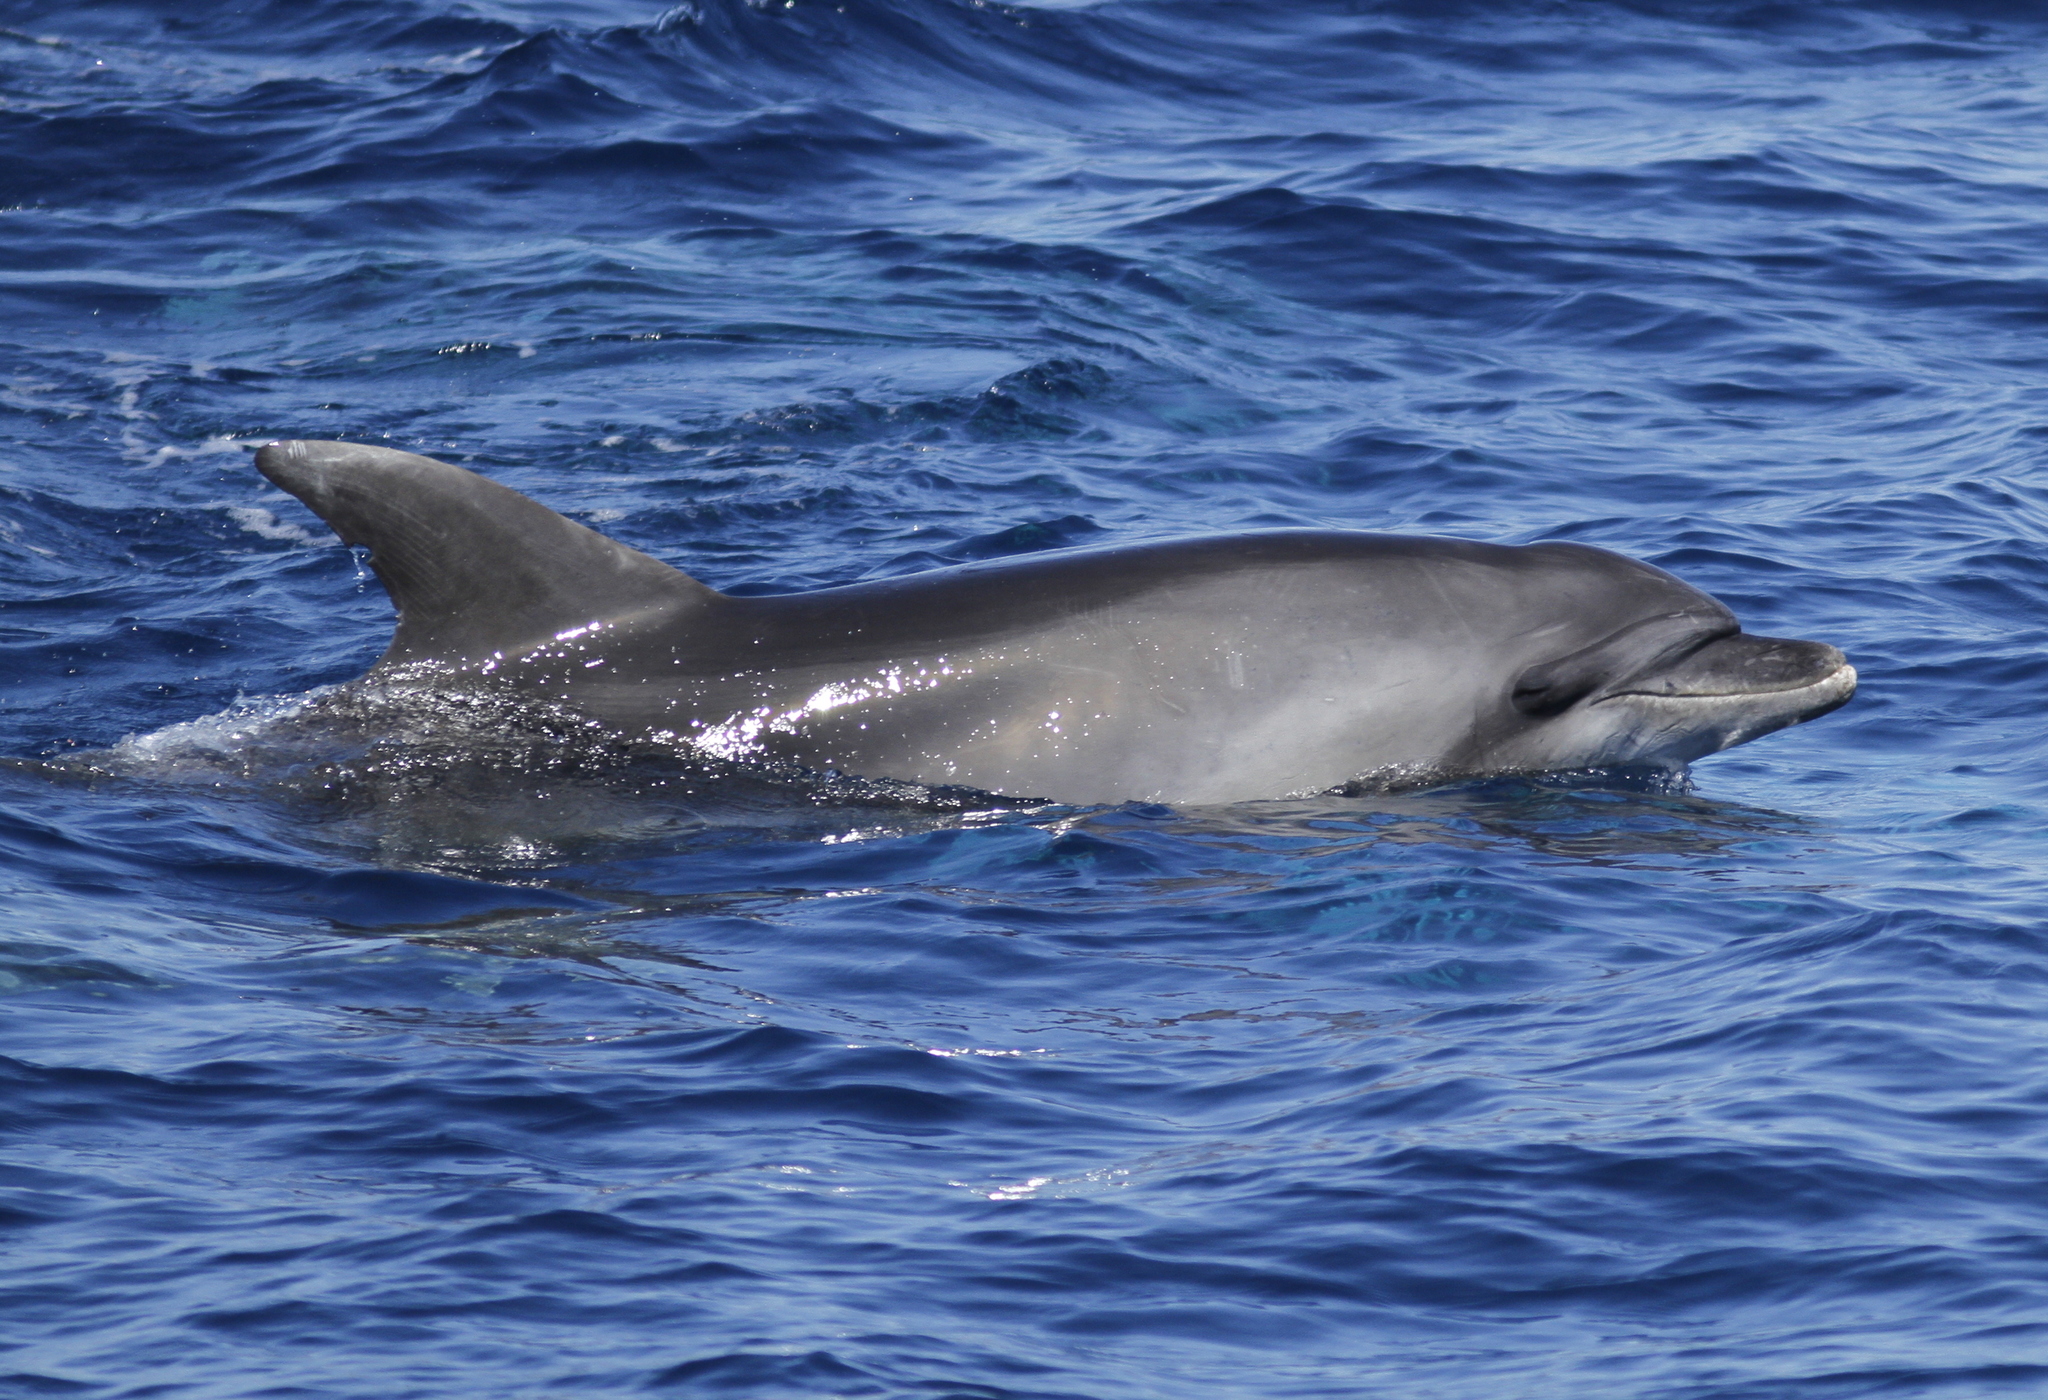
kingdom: Animalia
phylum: Chordata
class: Mammalia
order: Cetacea
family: Delphinidae
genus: Tursiops
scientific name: Tursiops truncatus
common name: Bottlenose dolphin
